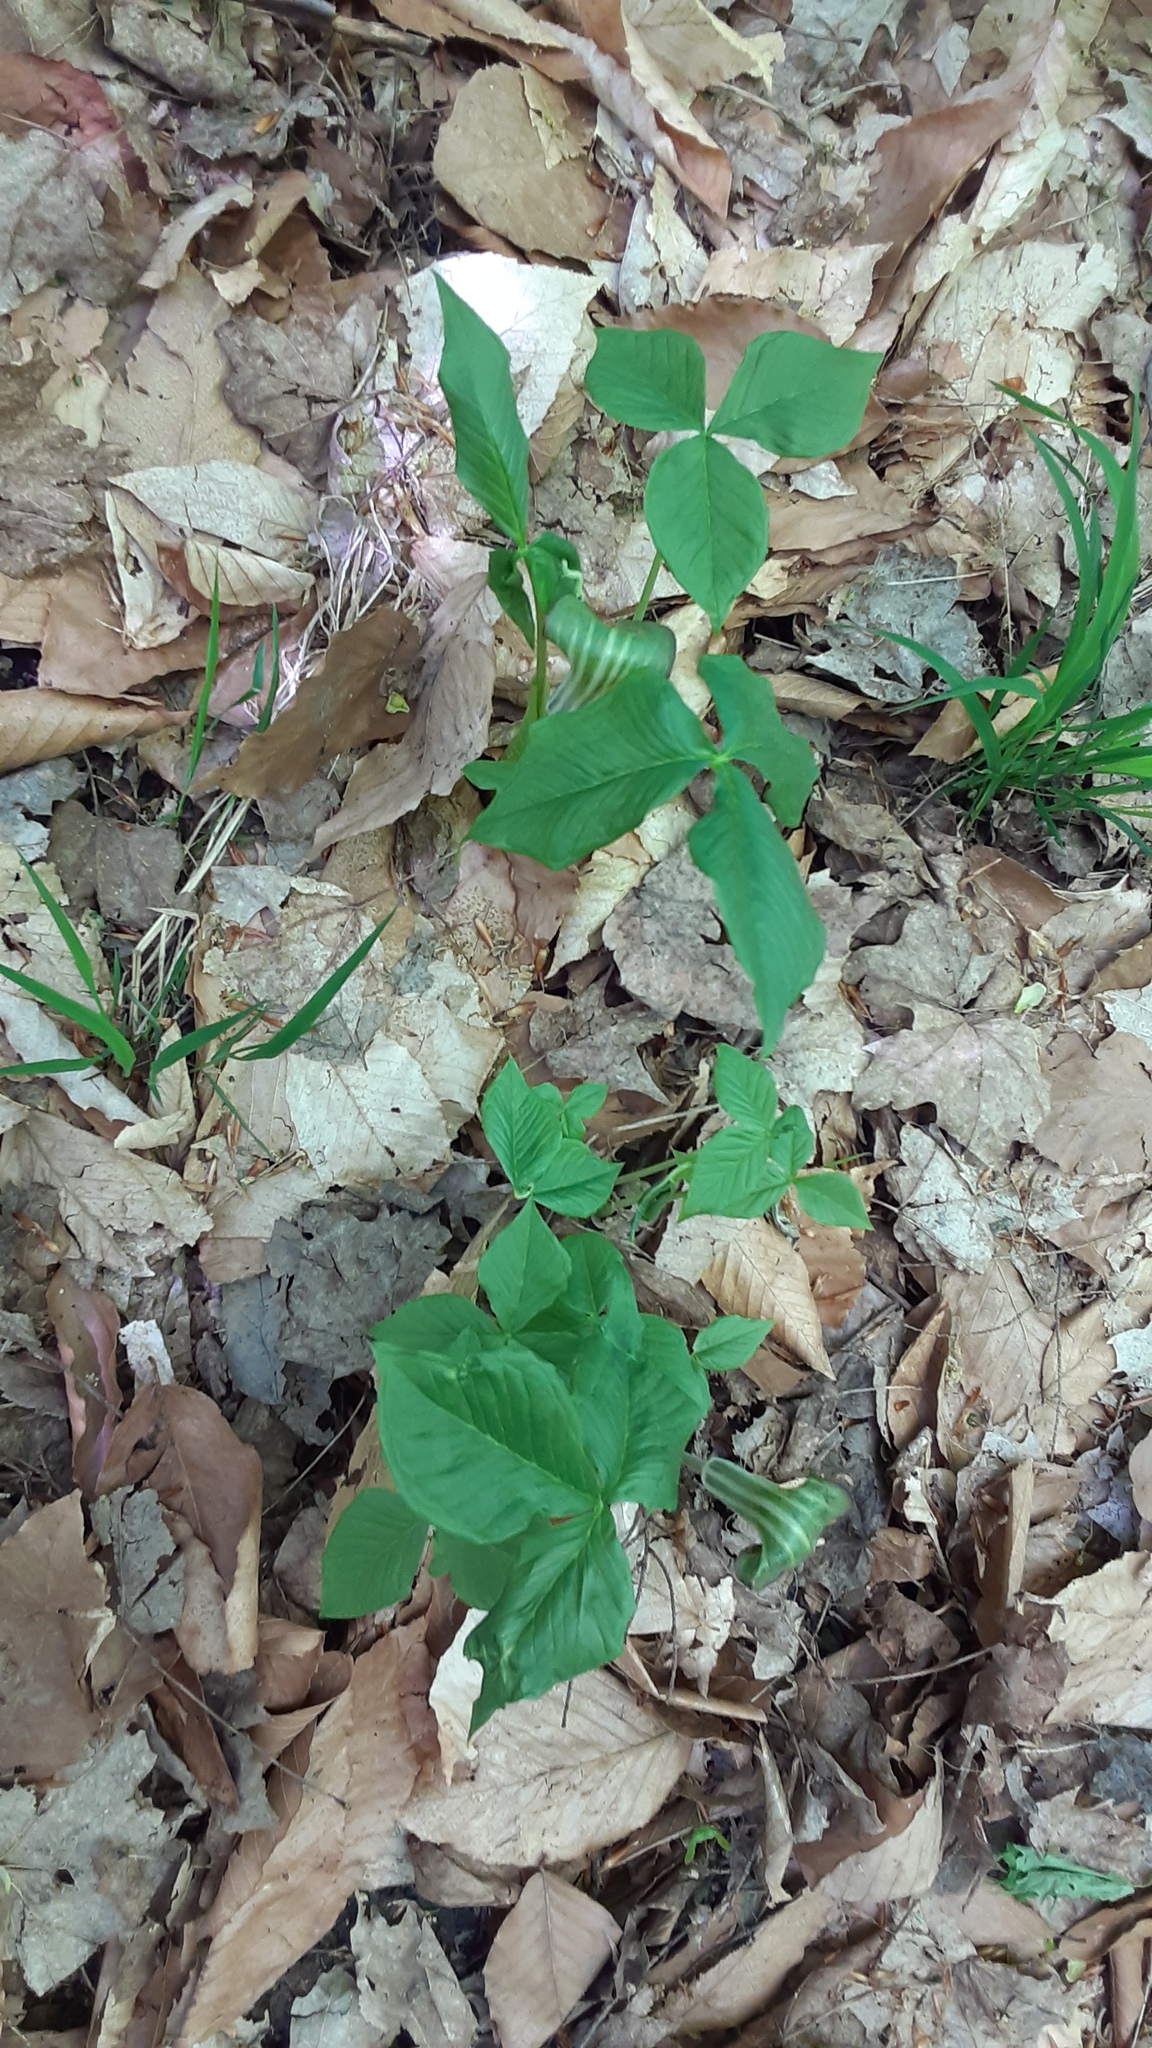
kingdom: Plantae
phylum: Tracheophyta
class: Liliopsida
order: Alismatales
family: Araceae
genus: Arisaema
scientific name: Arisaema triphyllum
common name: Jack-in-the-pulpit
